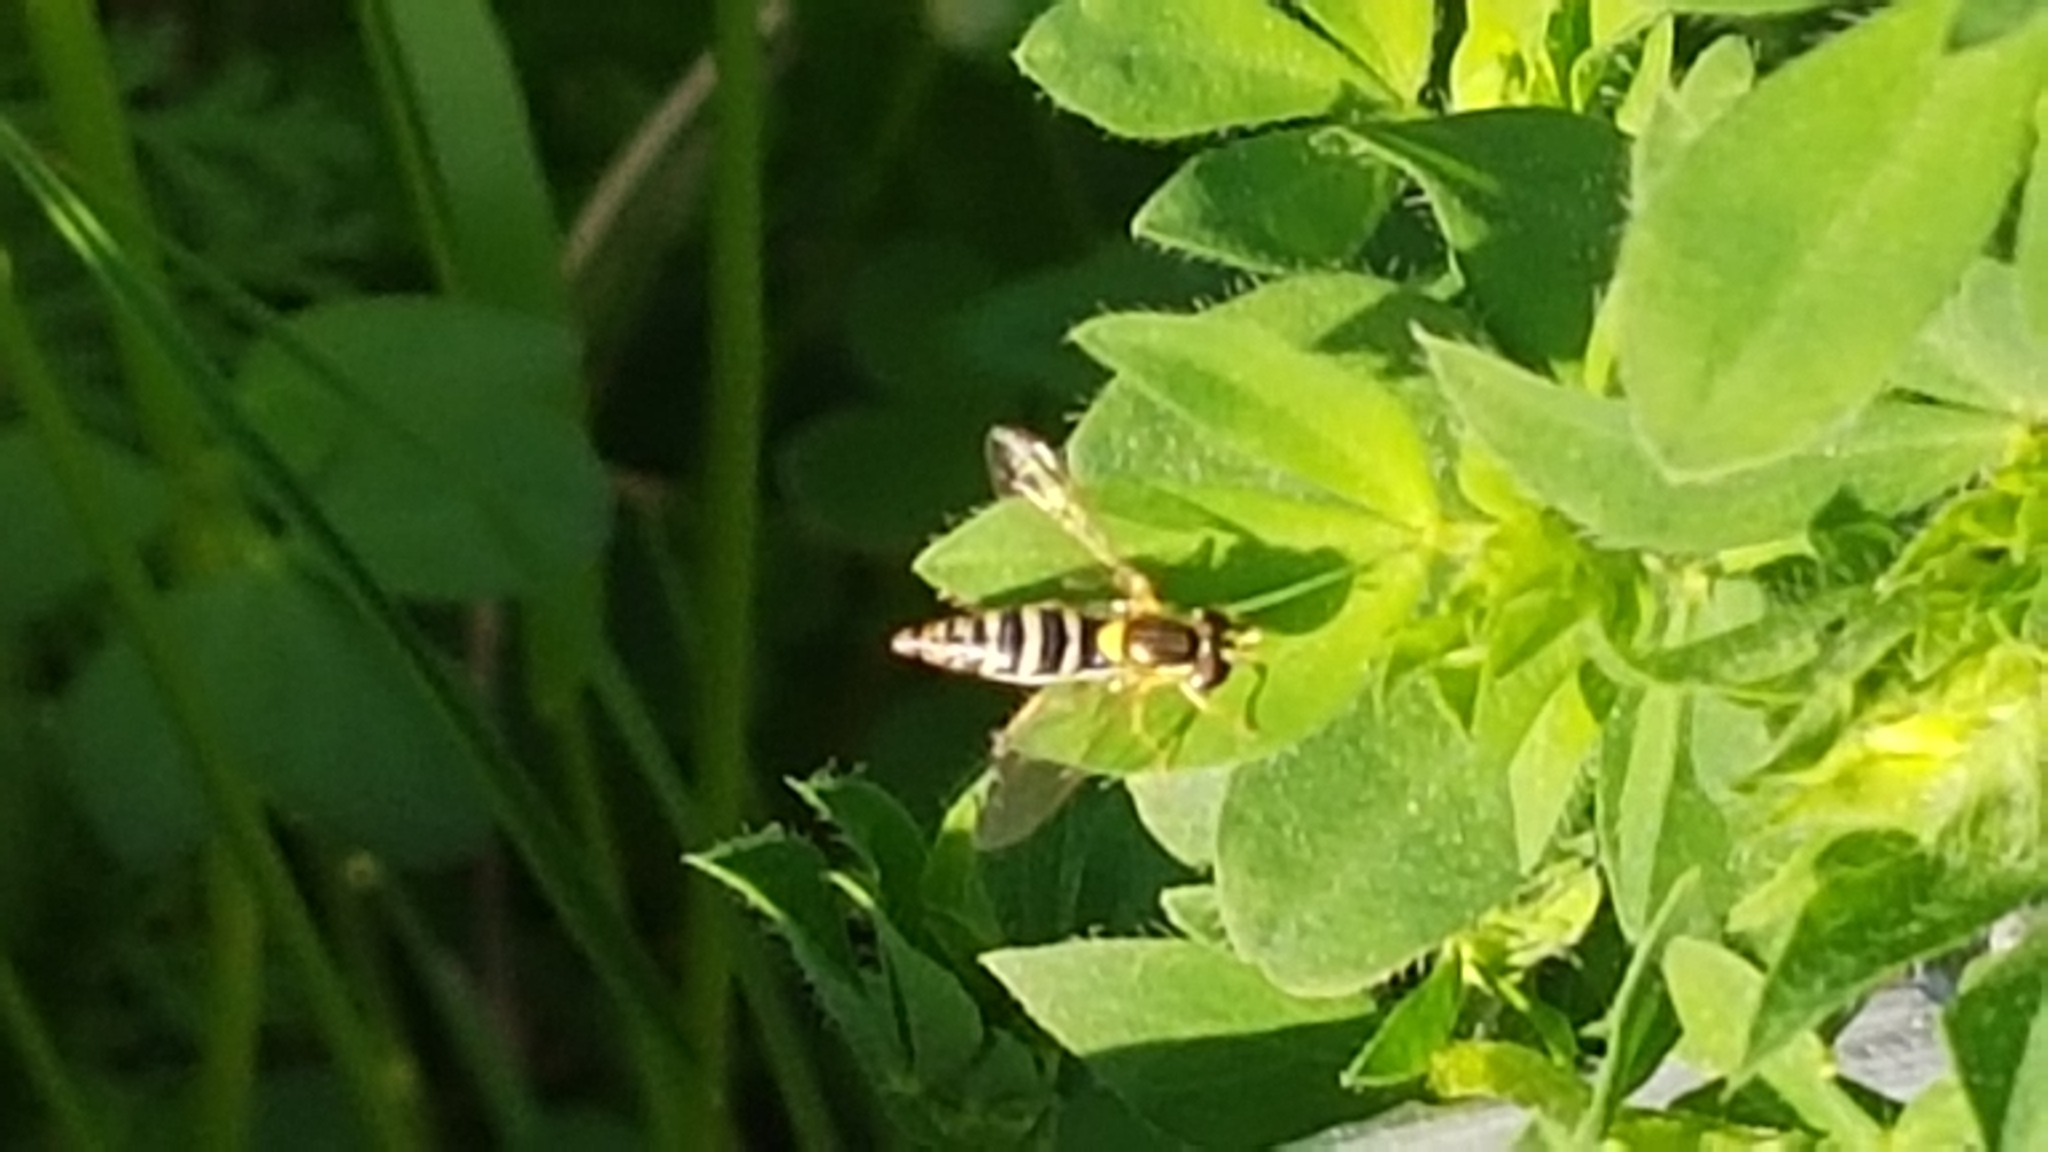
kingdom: Animalia
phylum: Arthropoda
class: Insecta
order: Diptera
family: Syrphidae
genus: Sphaerophoria
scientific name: Sphaerophoria
